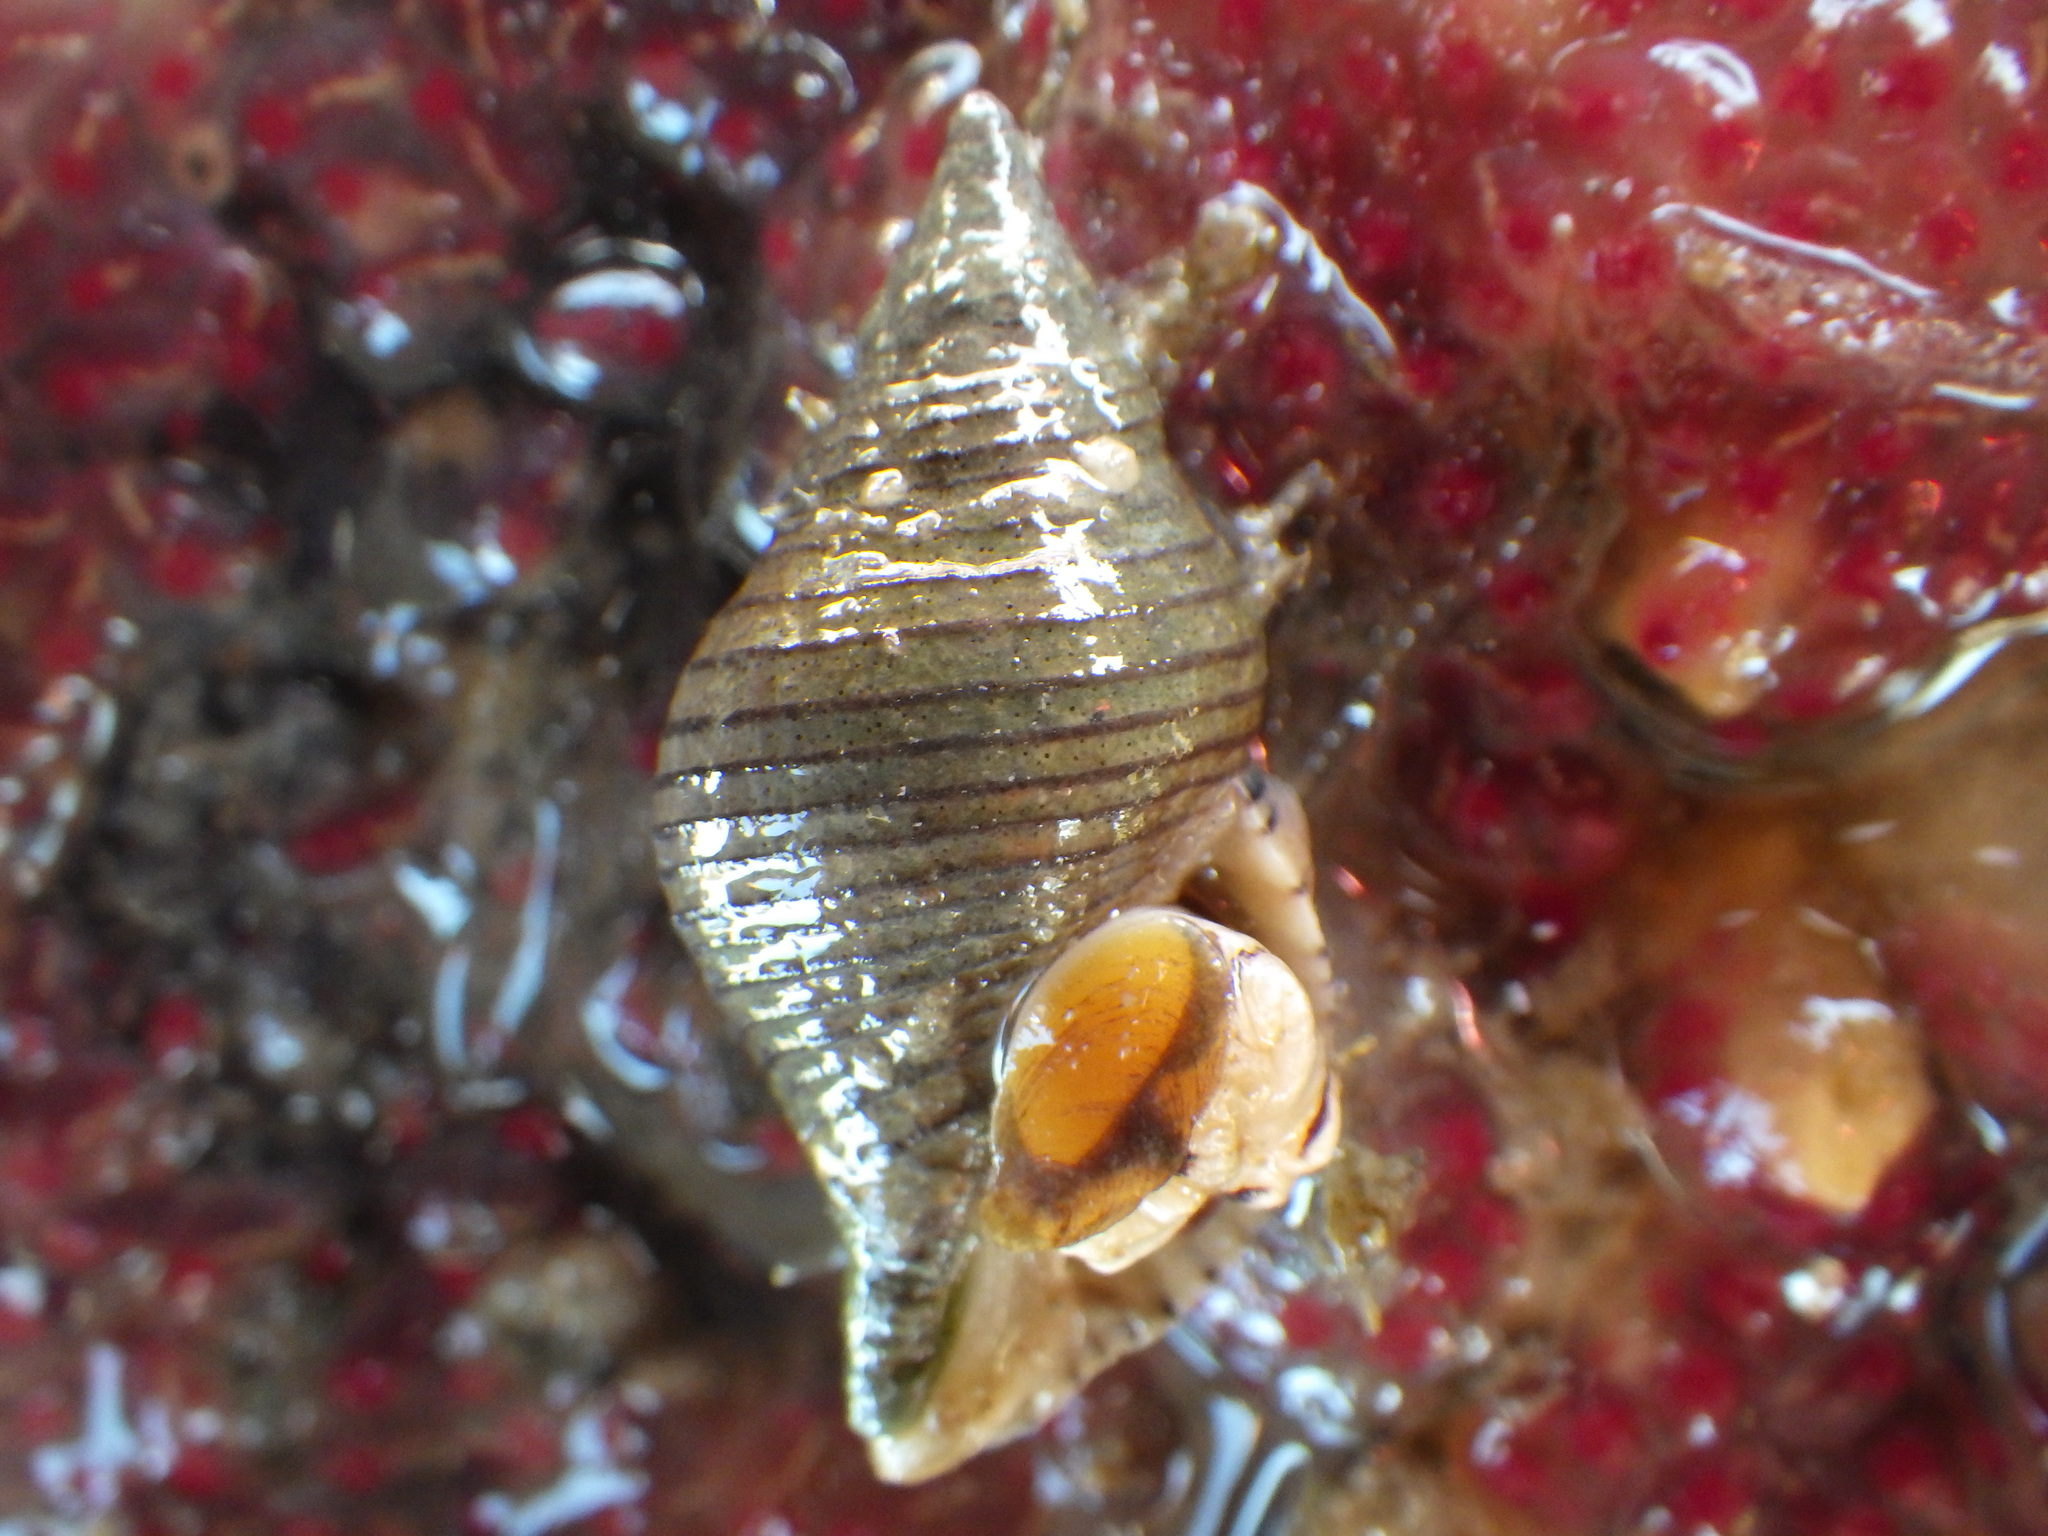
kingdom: Animalia
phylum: Mollusca
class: Gastropoda
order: Neogastropoda
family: Tudiclidae
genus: Buccinulum
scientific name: Buccinulum linea
